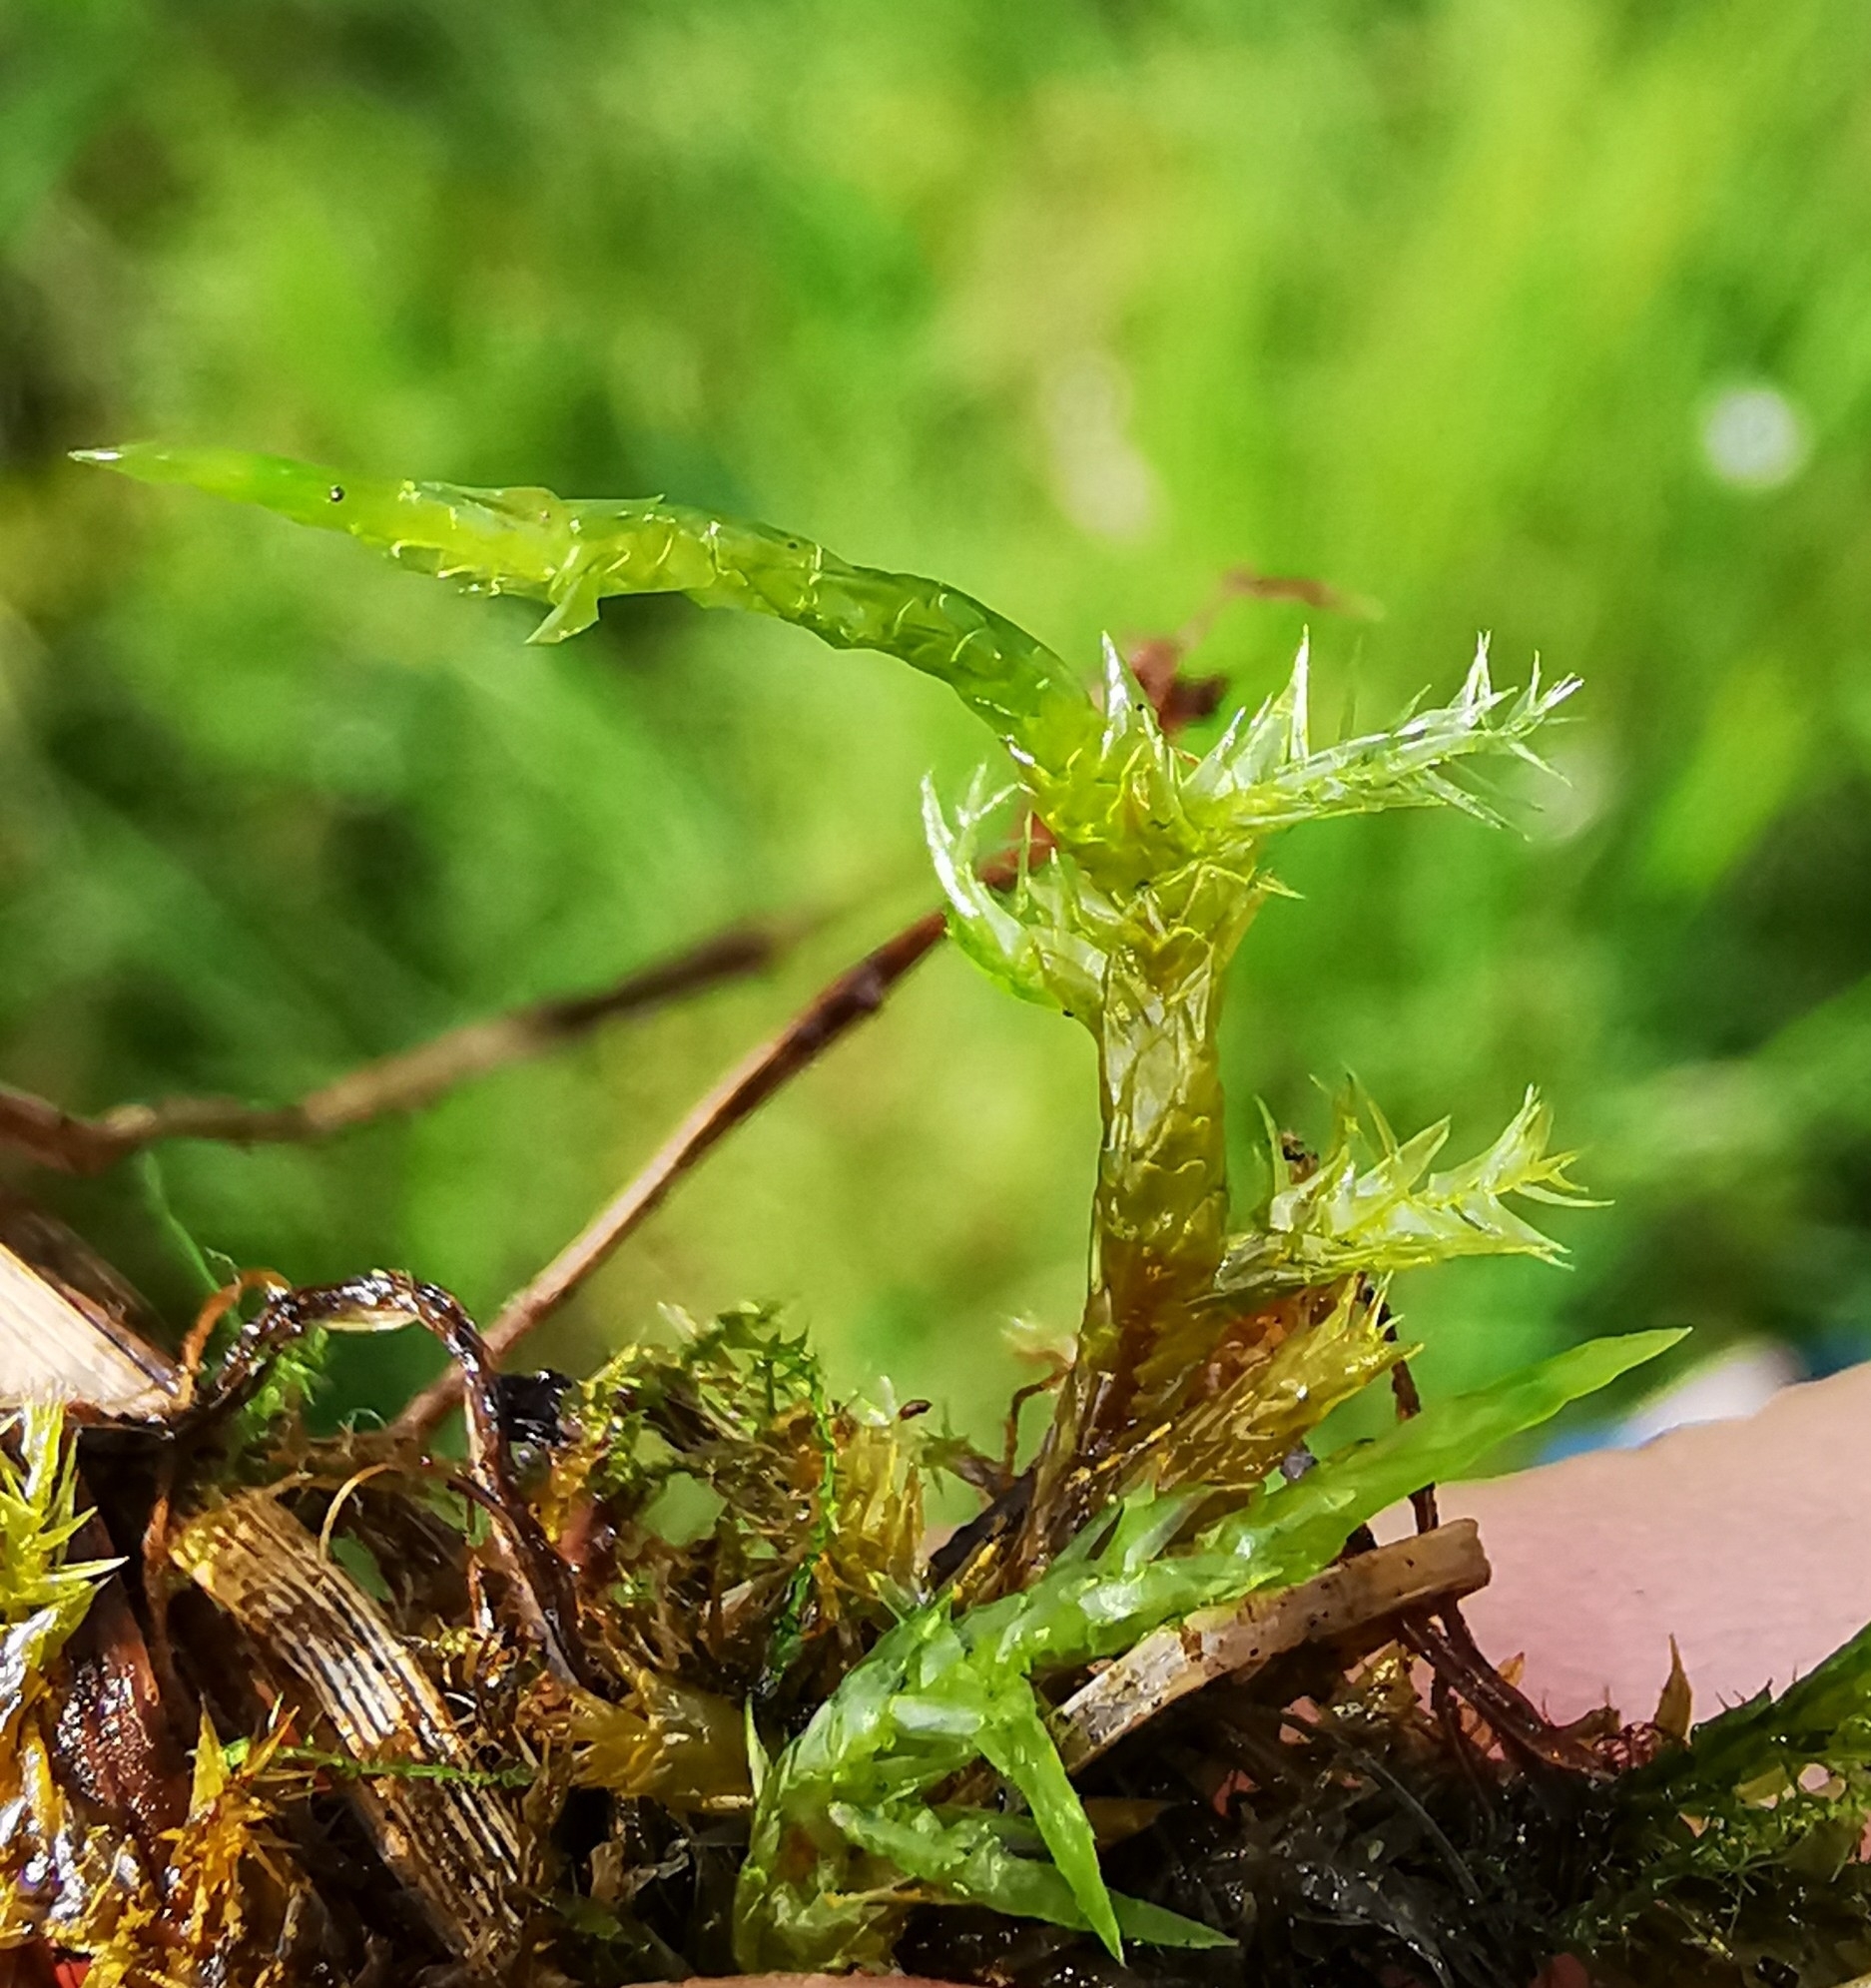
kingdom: Plantae
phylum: Bryophyta
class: Bryopsida
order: Hypnales
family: Pylaisiaceae
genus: Calliergonella
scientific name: Calliergonella cuspidata
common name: Common large wetland moss
